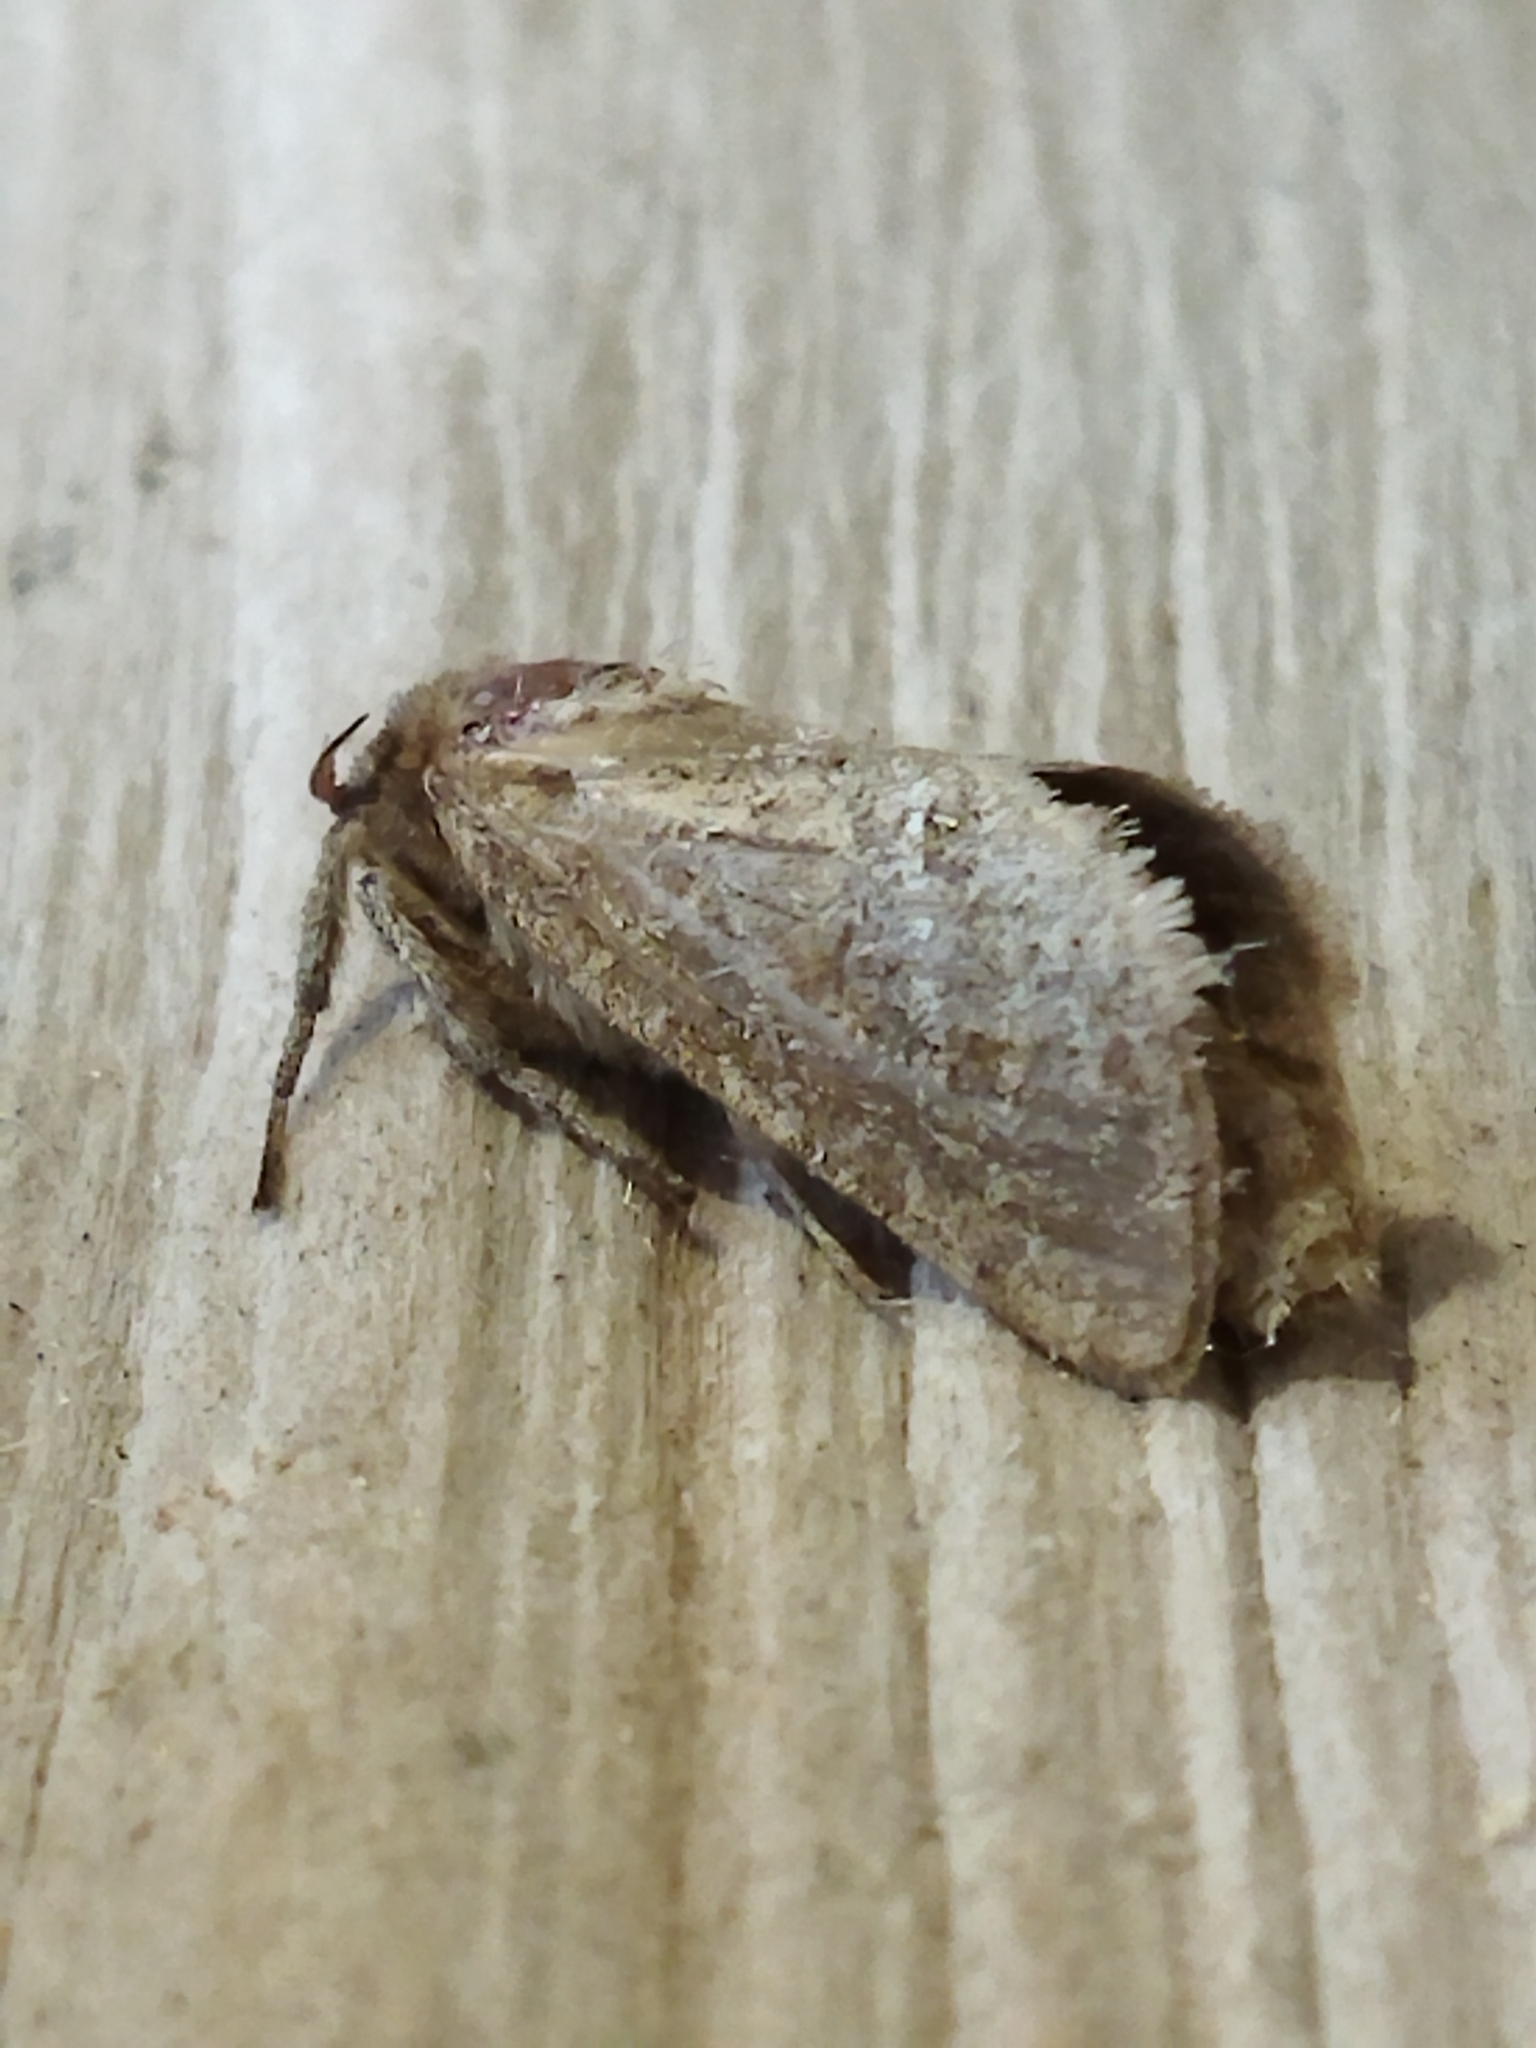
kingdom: Animalia
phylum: Arthropoda
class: Insecta
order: Lepidoptera
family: Hepialidae
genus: Triodia
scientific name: Triodia amasinus
